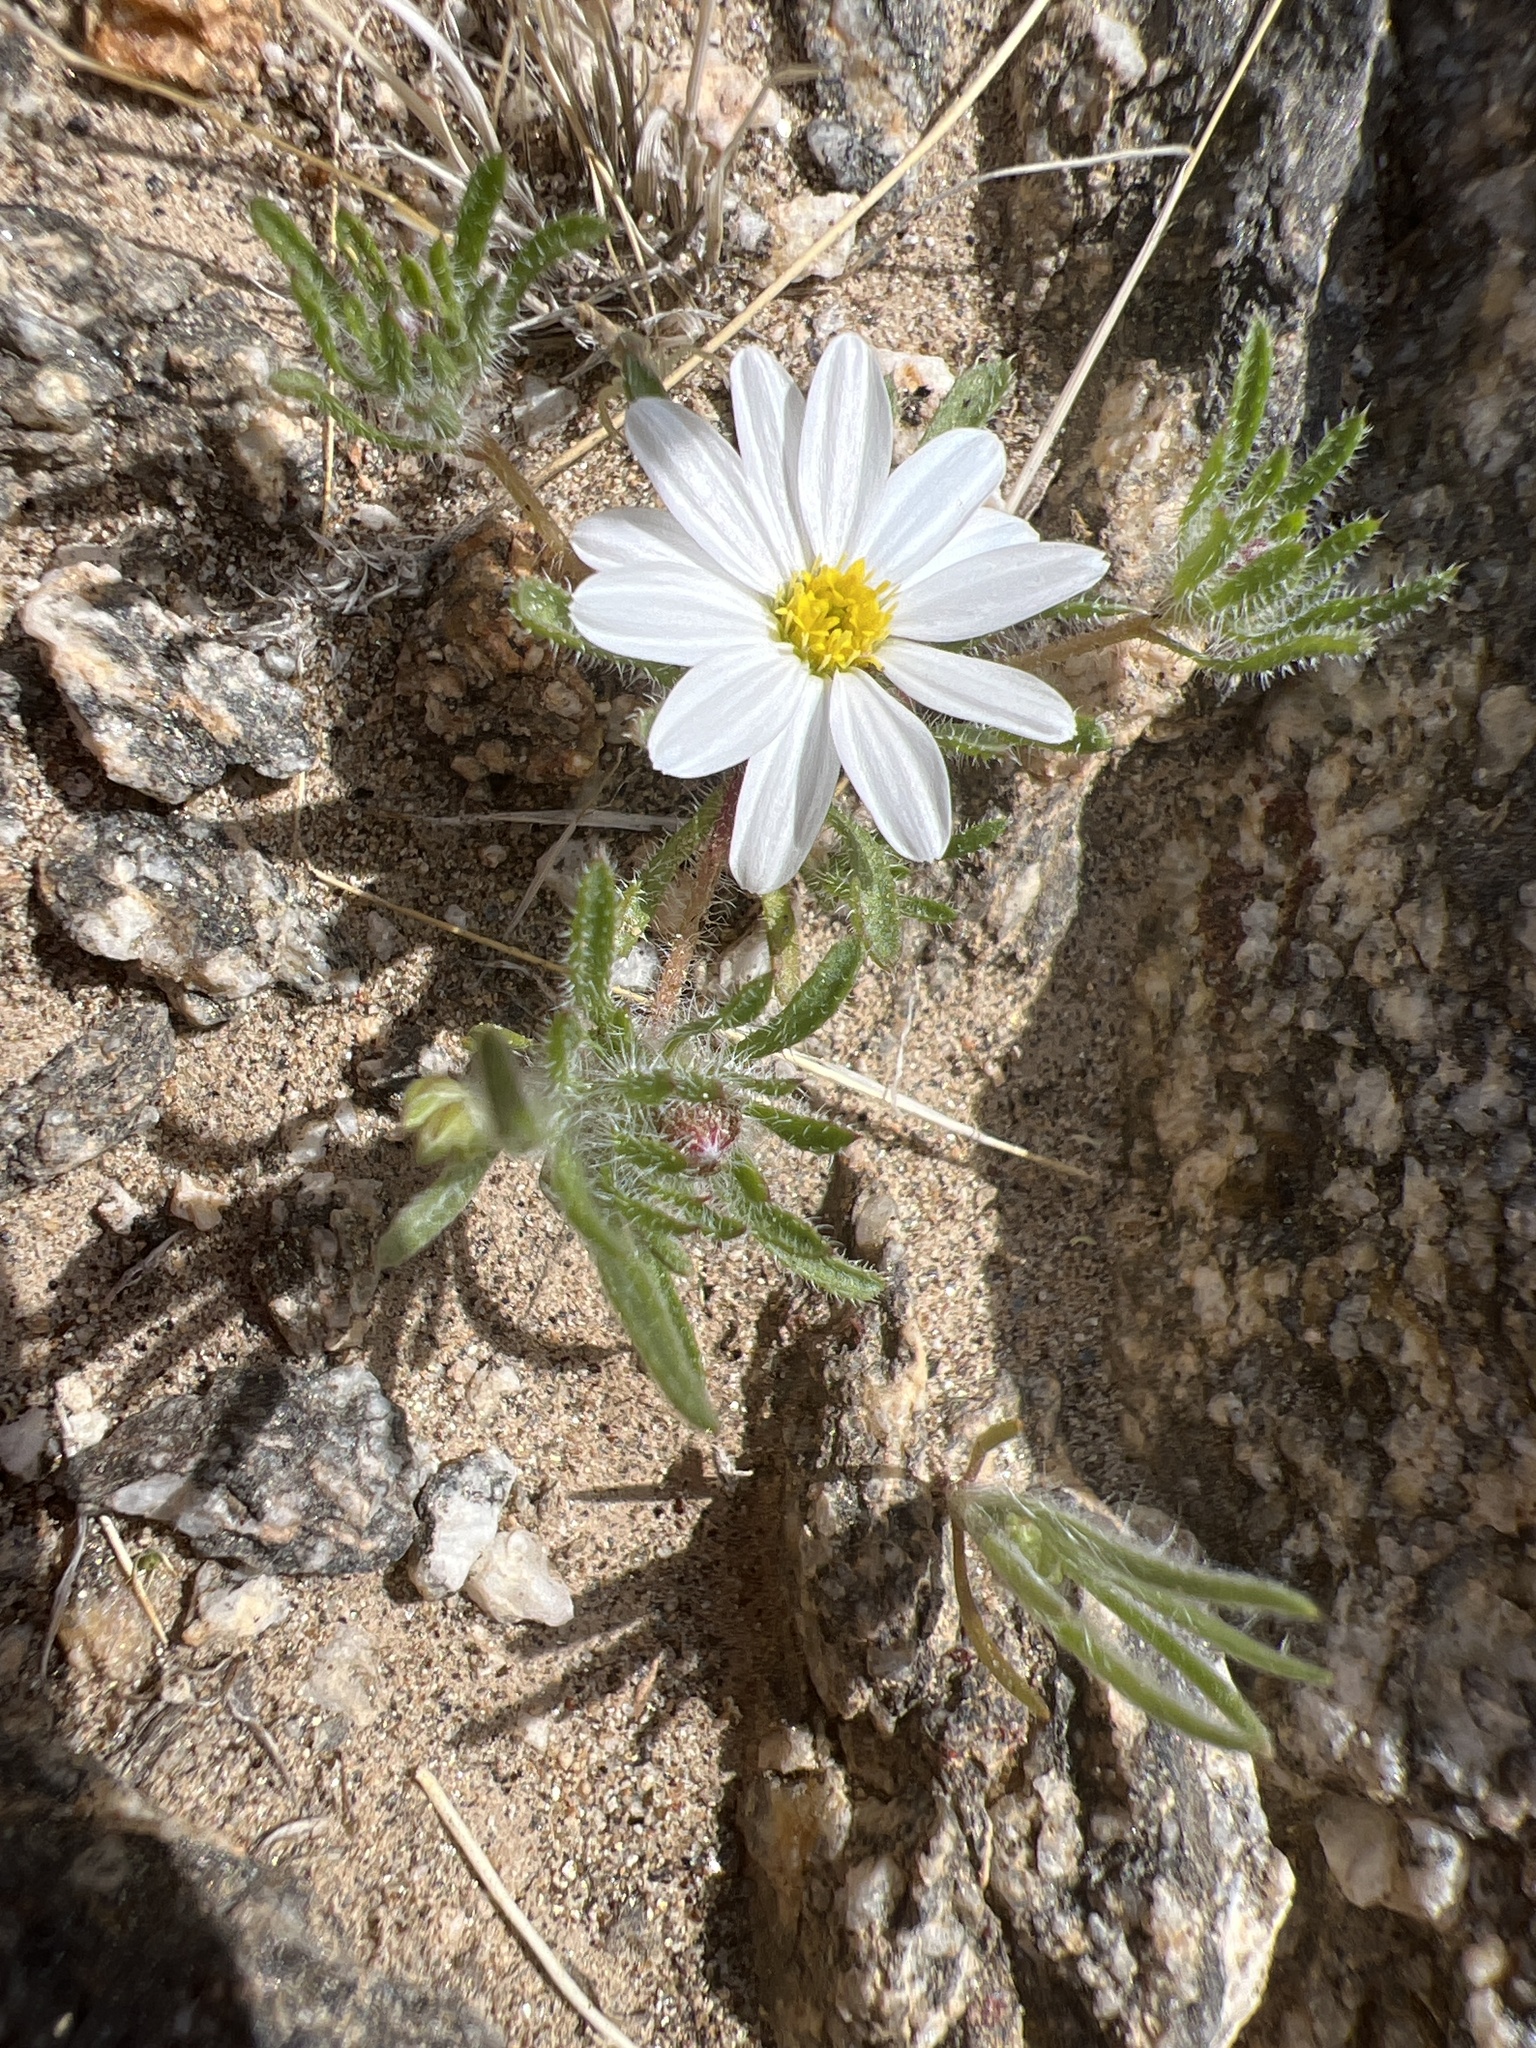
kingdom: Plantae
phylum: Tracheophyta
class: Magnoliopsida
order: Asterales
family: Asteraceae
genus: Monoptilon
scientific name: Monoptilon bellioides
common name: Bristly desertstar
